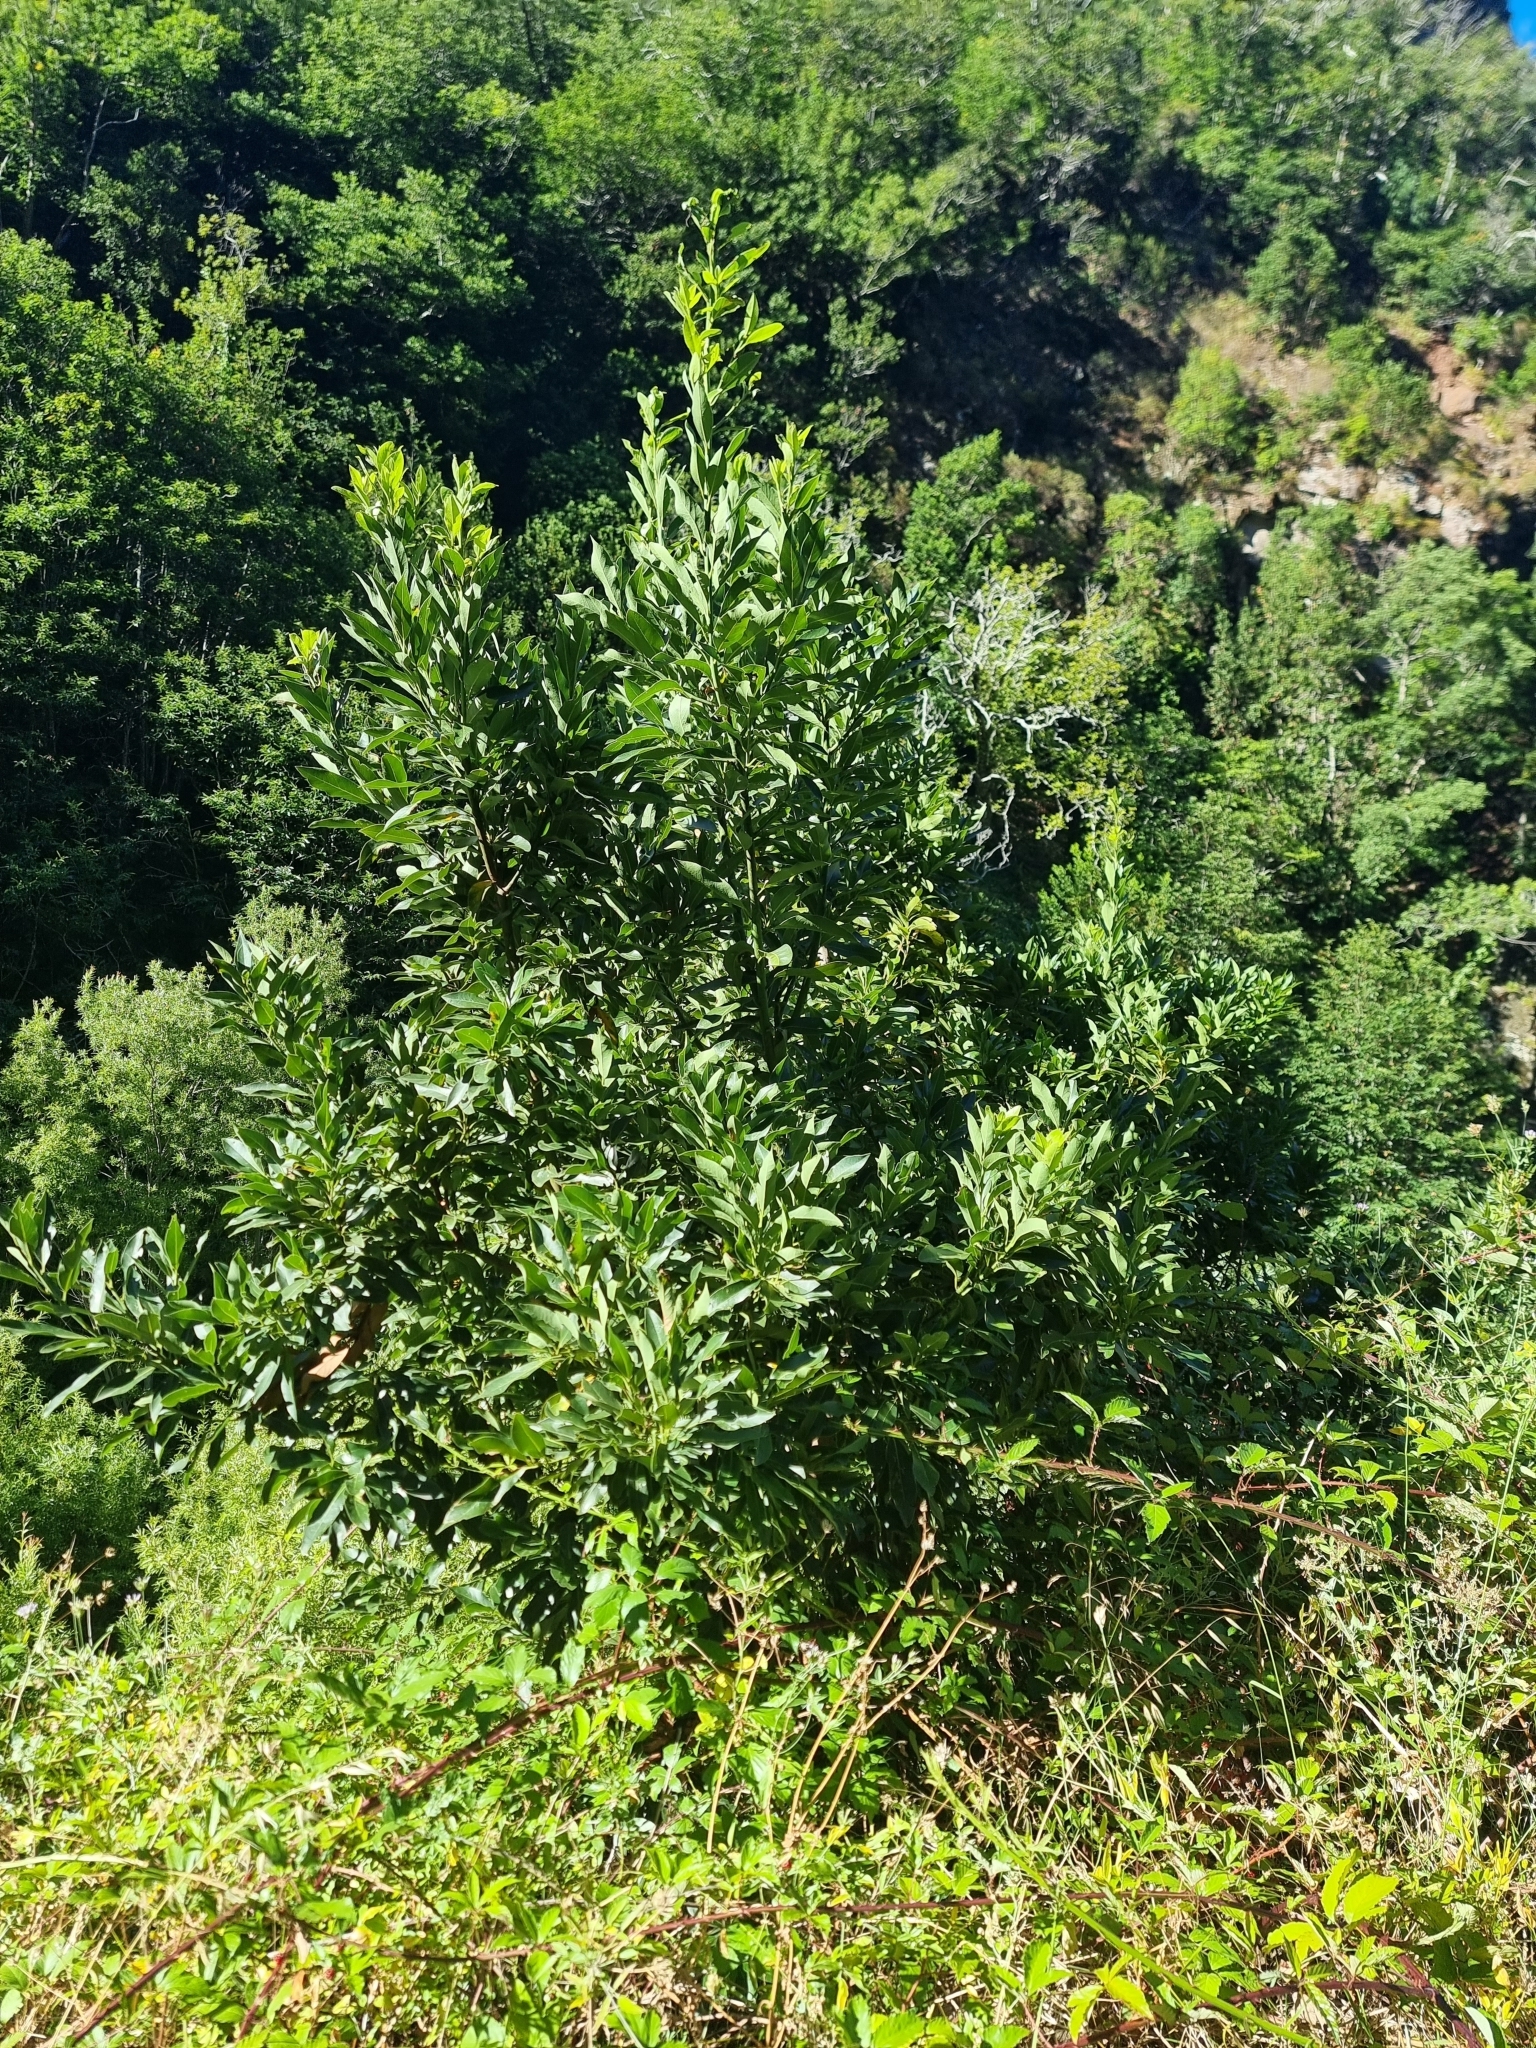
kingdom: Plantae
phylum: Tracheophyta
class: Magnoliopsida
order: Laurales
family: Lauraceae
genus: Laurus
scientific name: Laurus novocanariensis
